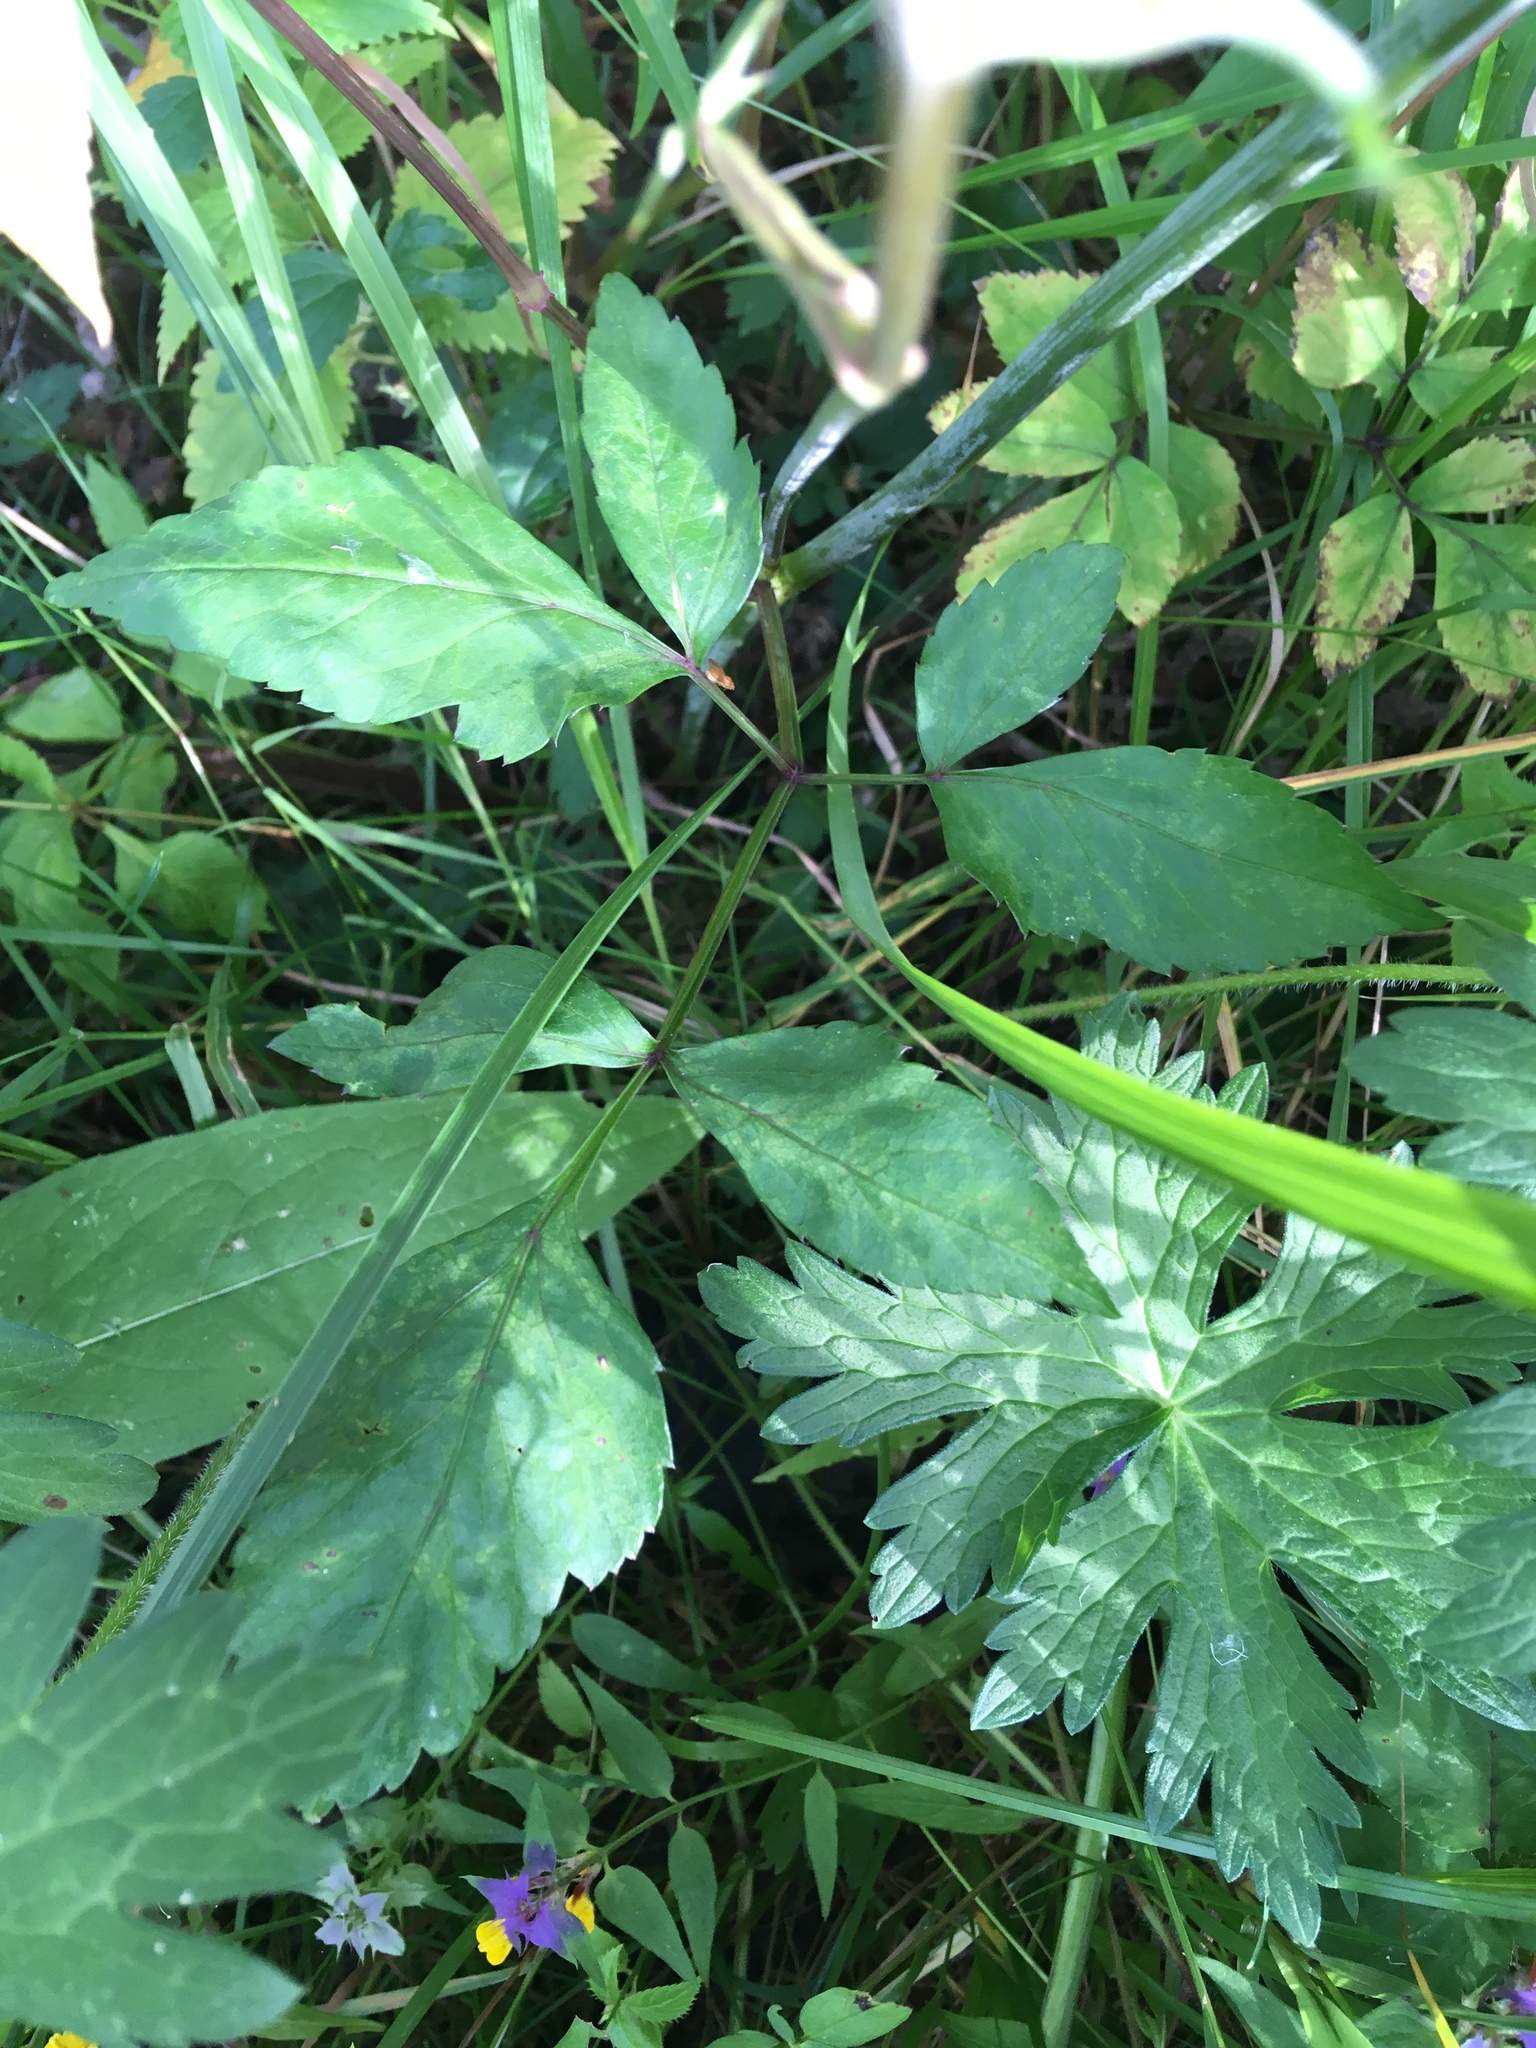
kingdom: Plantae
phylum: Tracheophyta
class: Magnoliopsida
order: Apiales
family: Apiaceae
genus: Angelica
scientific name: Angelica sylvestris
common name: Wild angelica
